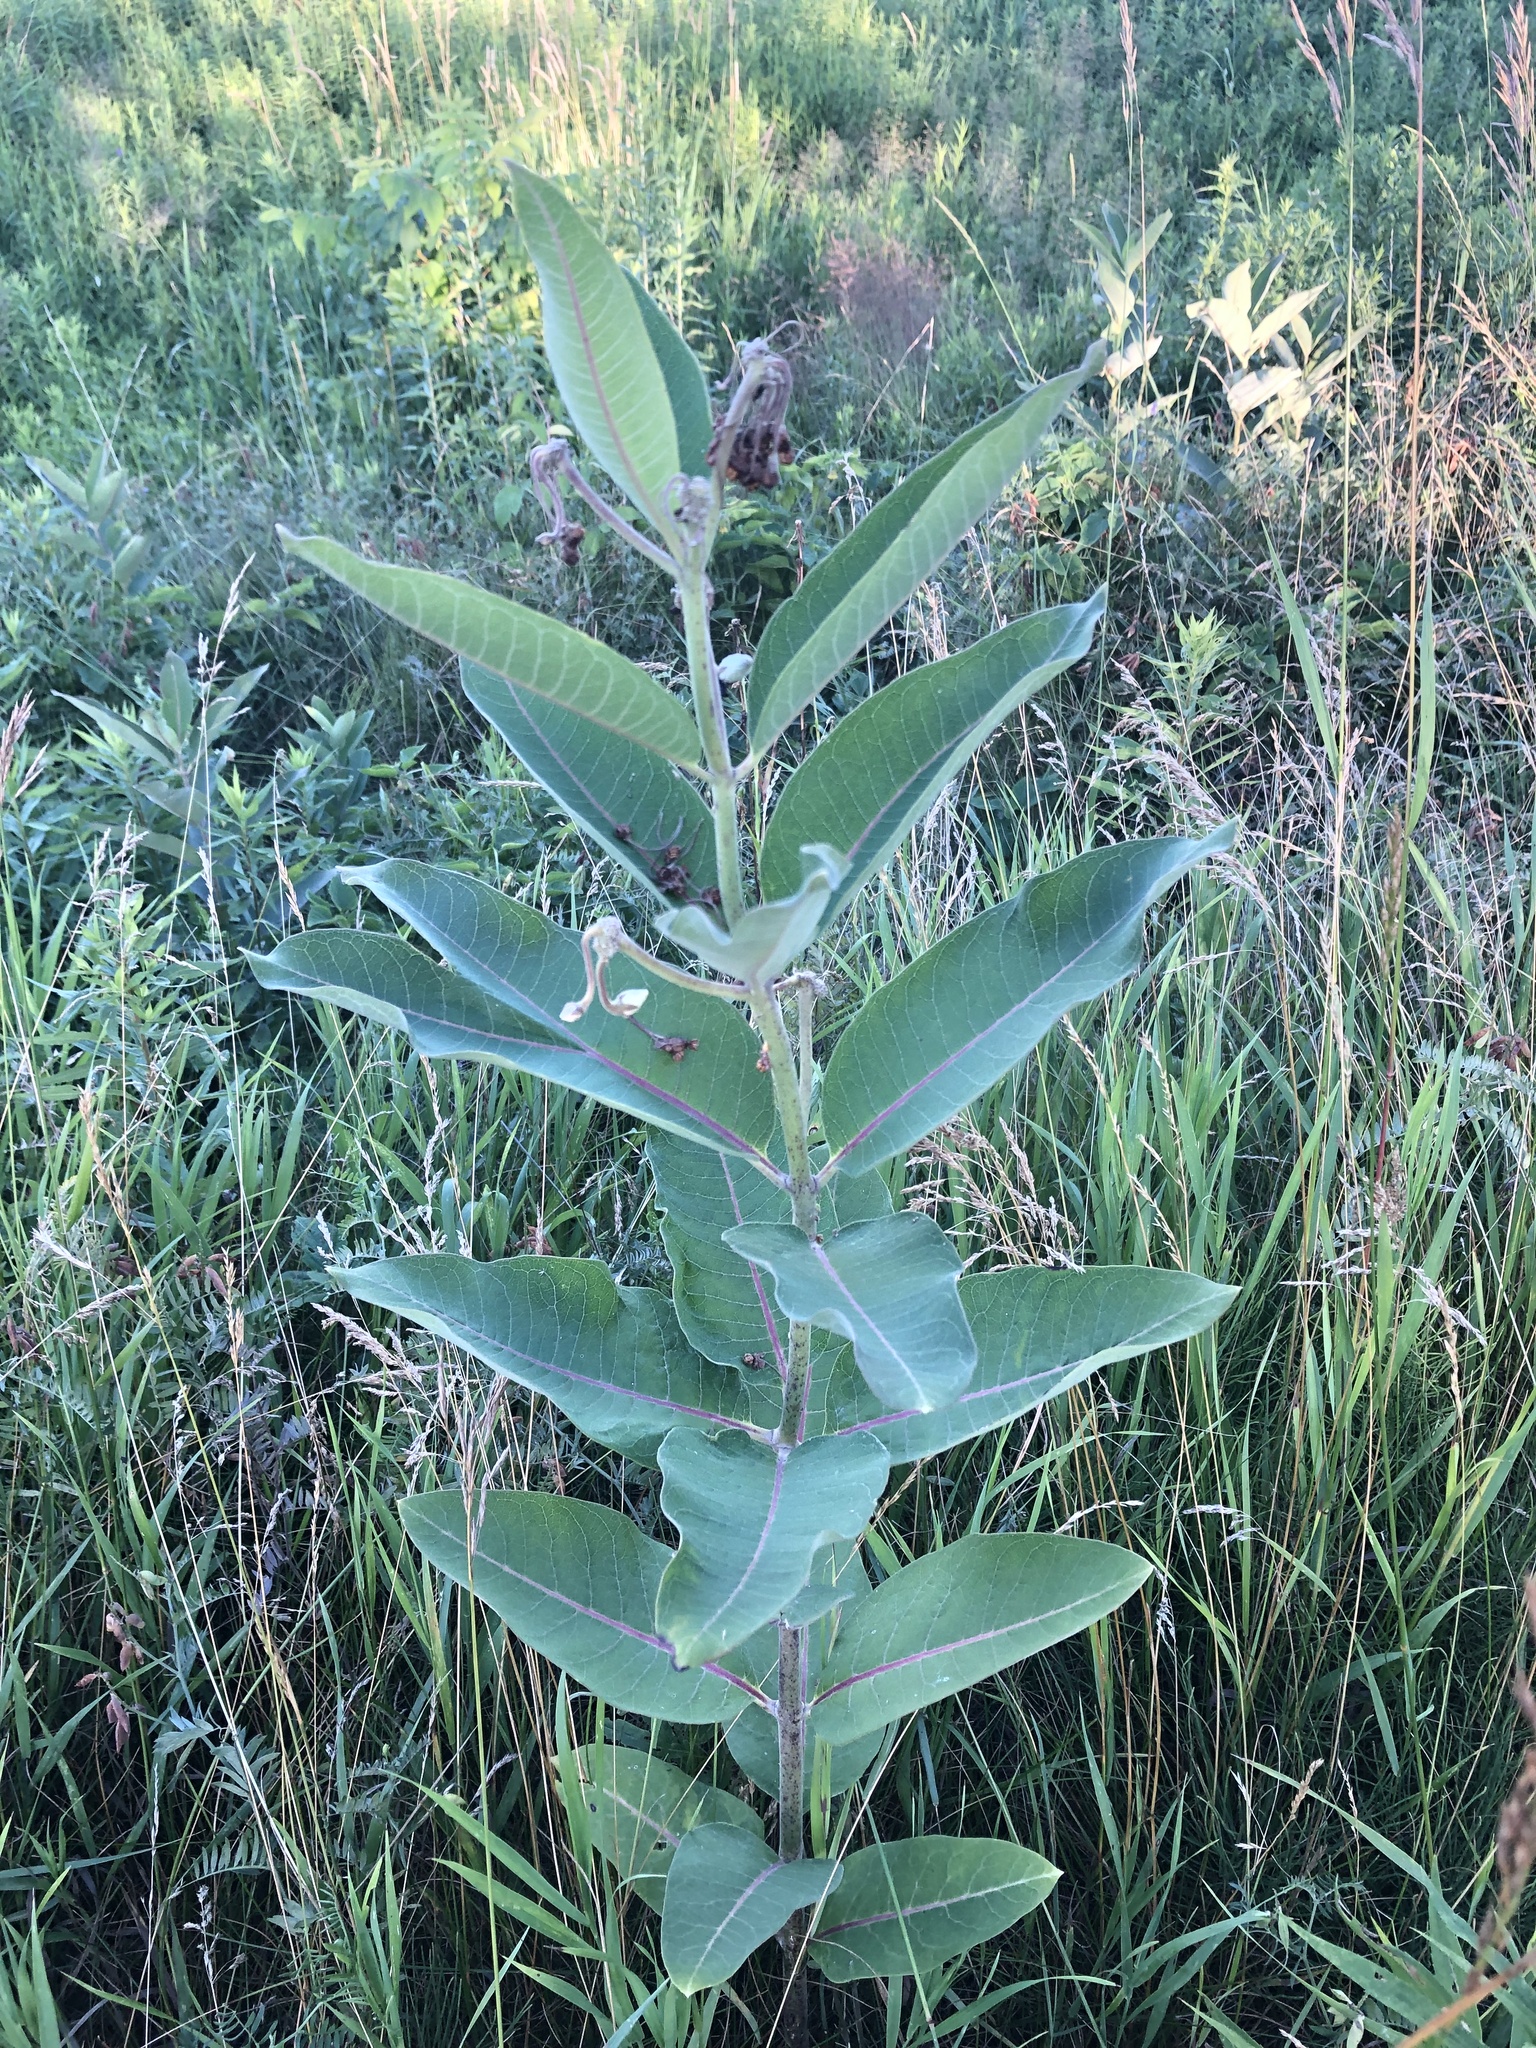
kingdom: Plantae
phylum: Tracheophyta
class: Magnoliopsida
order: Gentianales
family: Apocynaceae
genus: Asclepias
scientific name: Asclepias syriaca
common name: Common milkweed
